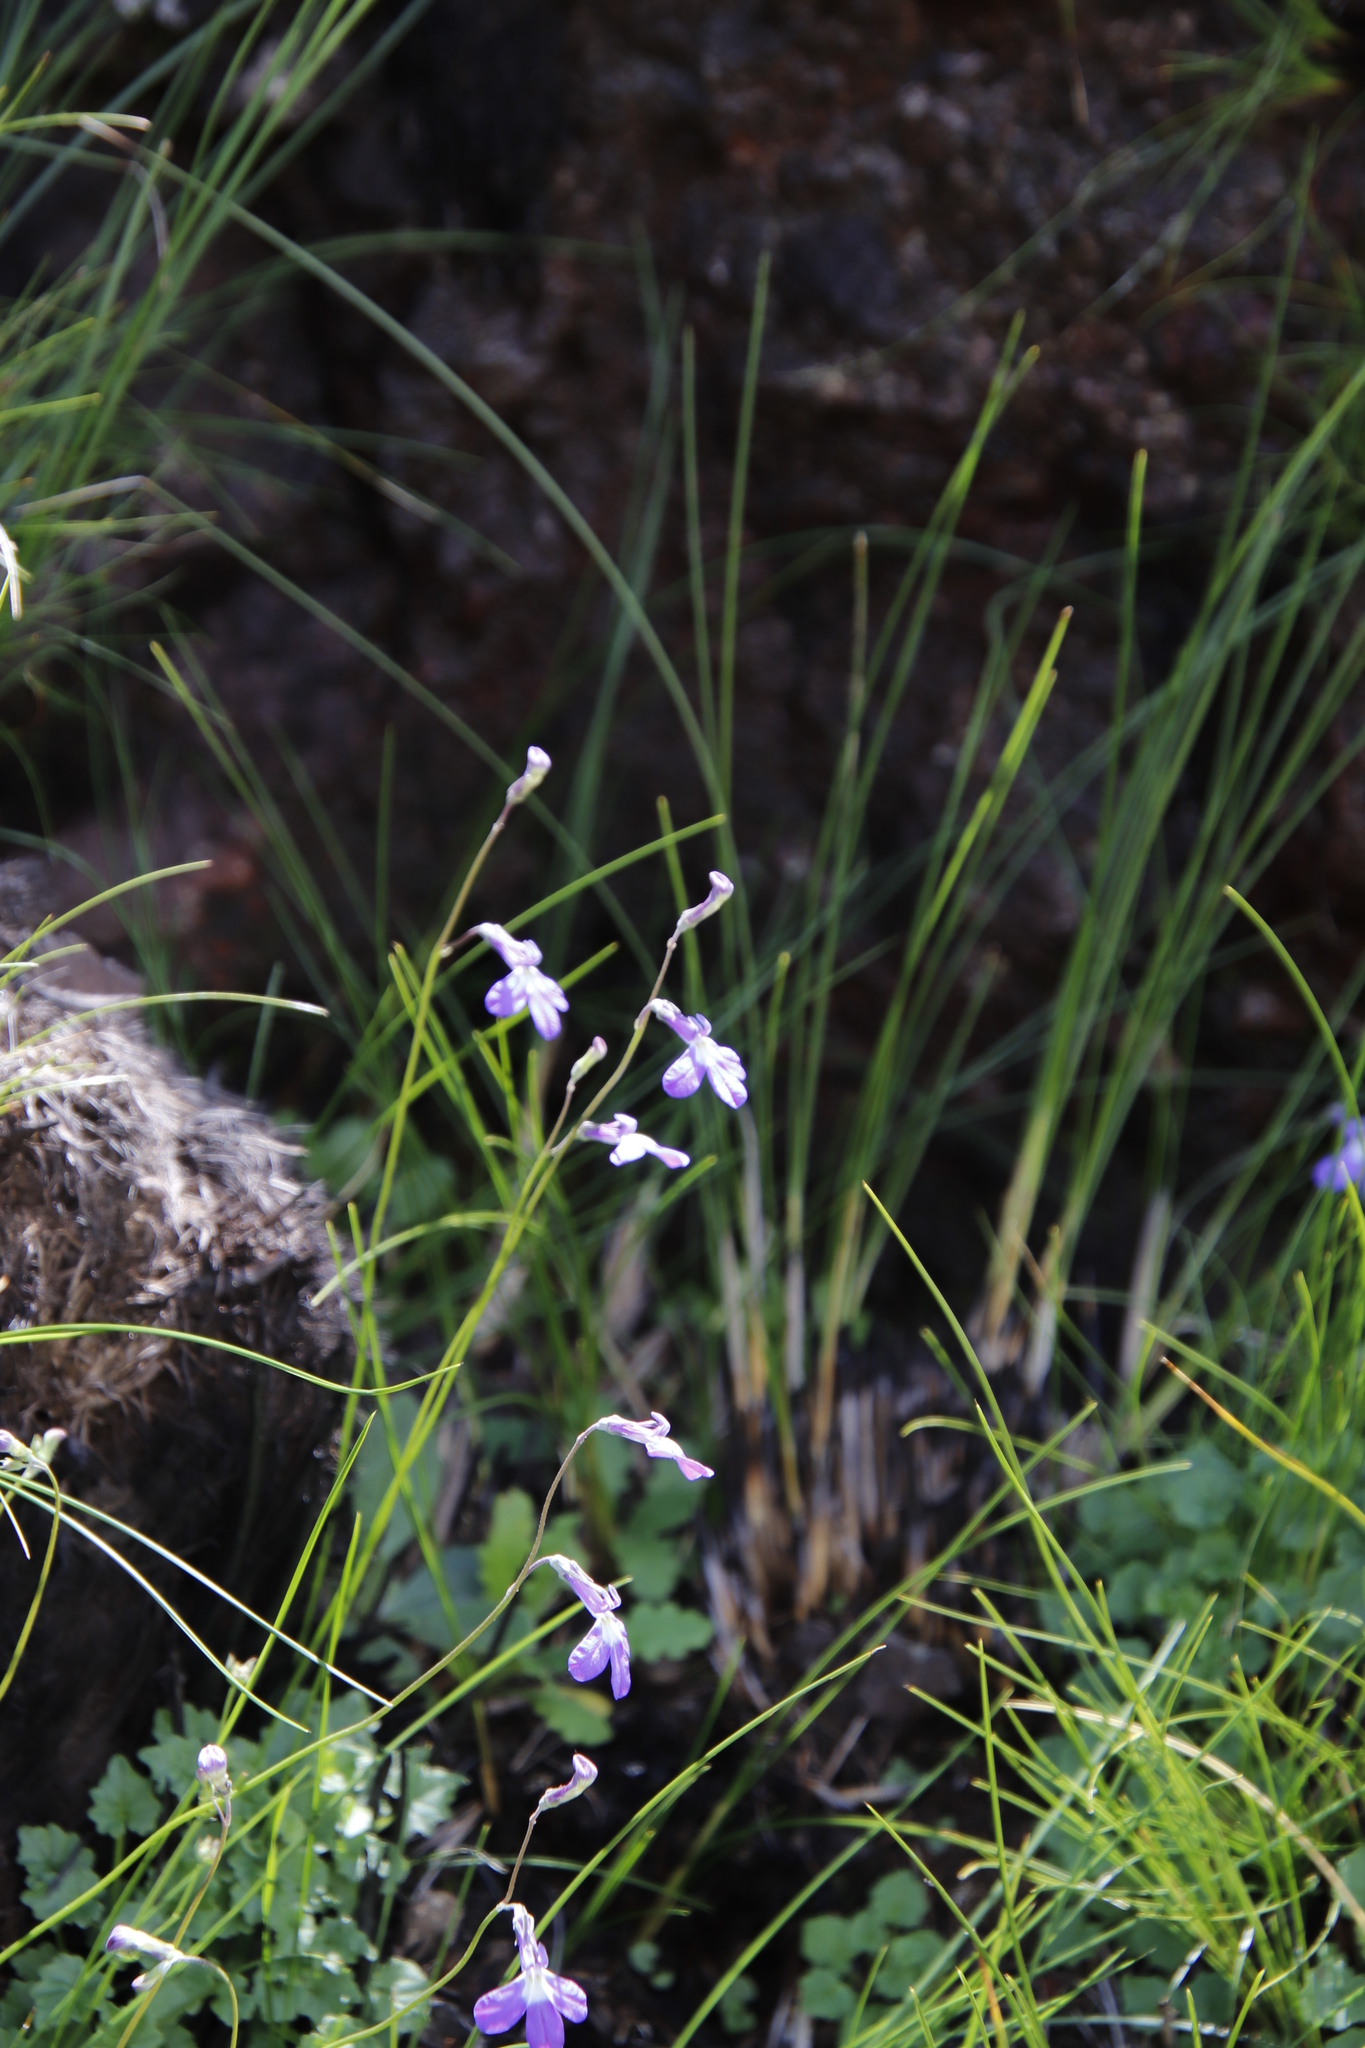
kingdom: Plantae
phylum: Tracheophyta
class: Magnoliopsida
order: Asterales
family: Campanulaceae
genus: Lobelia
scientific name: Lobelia preslii
